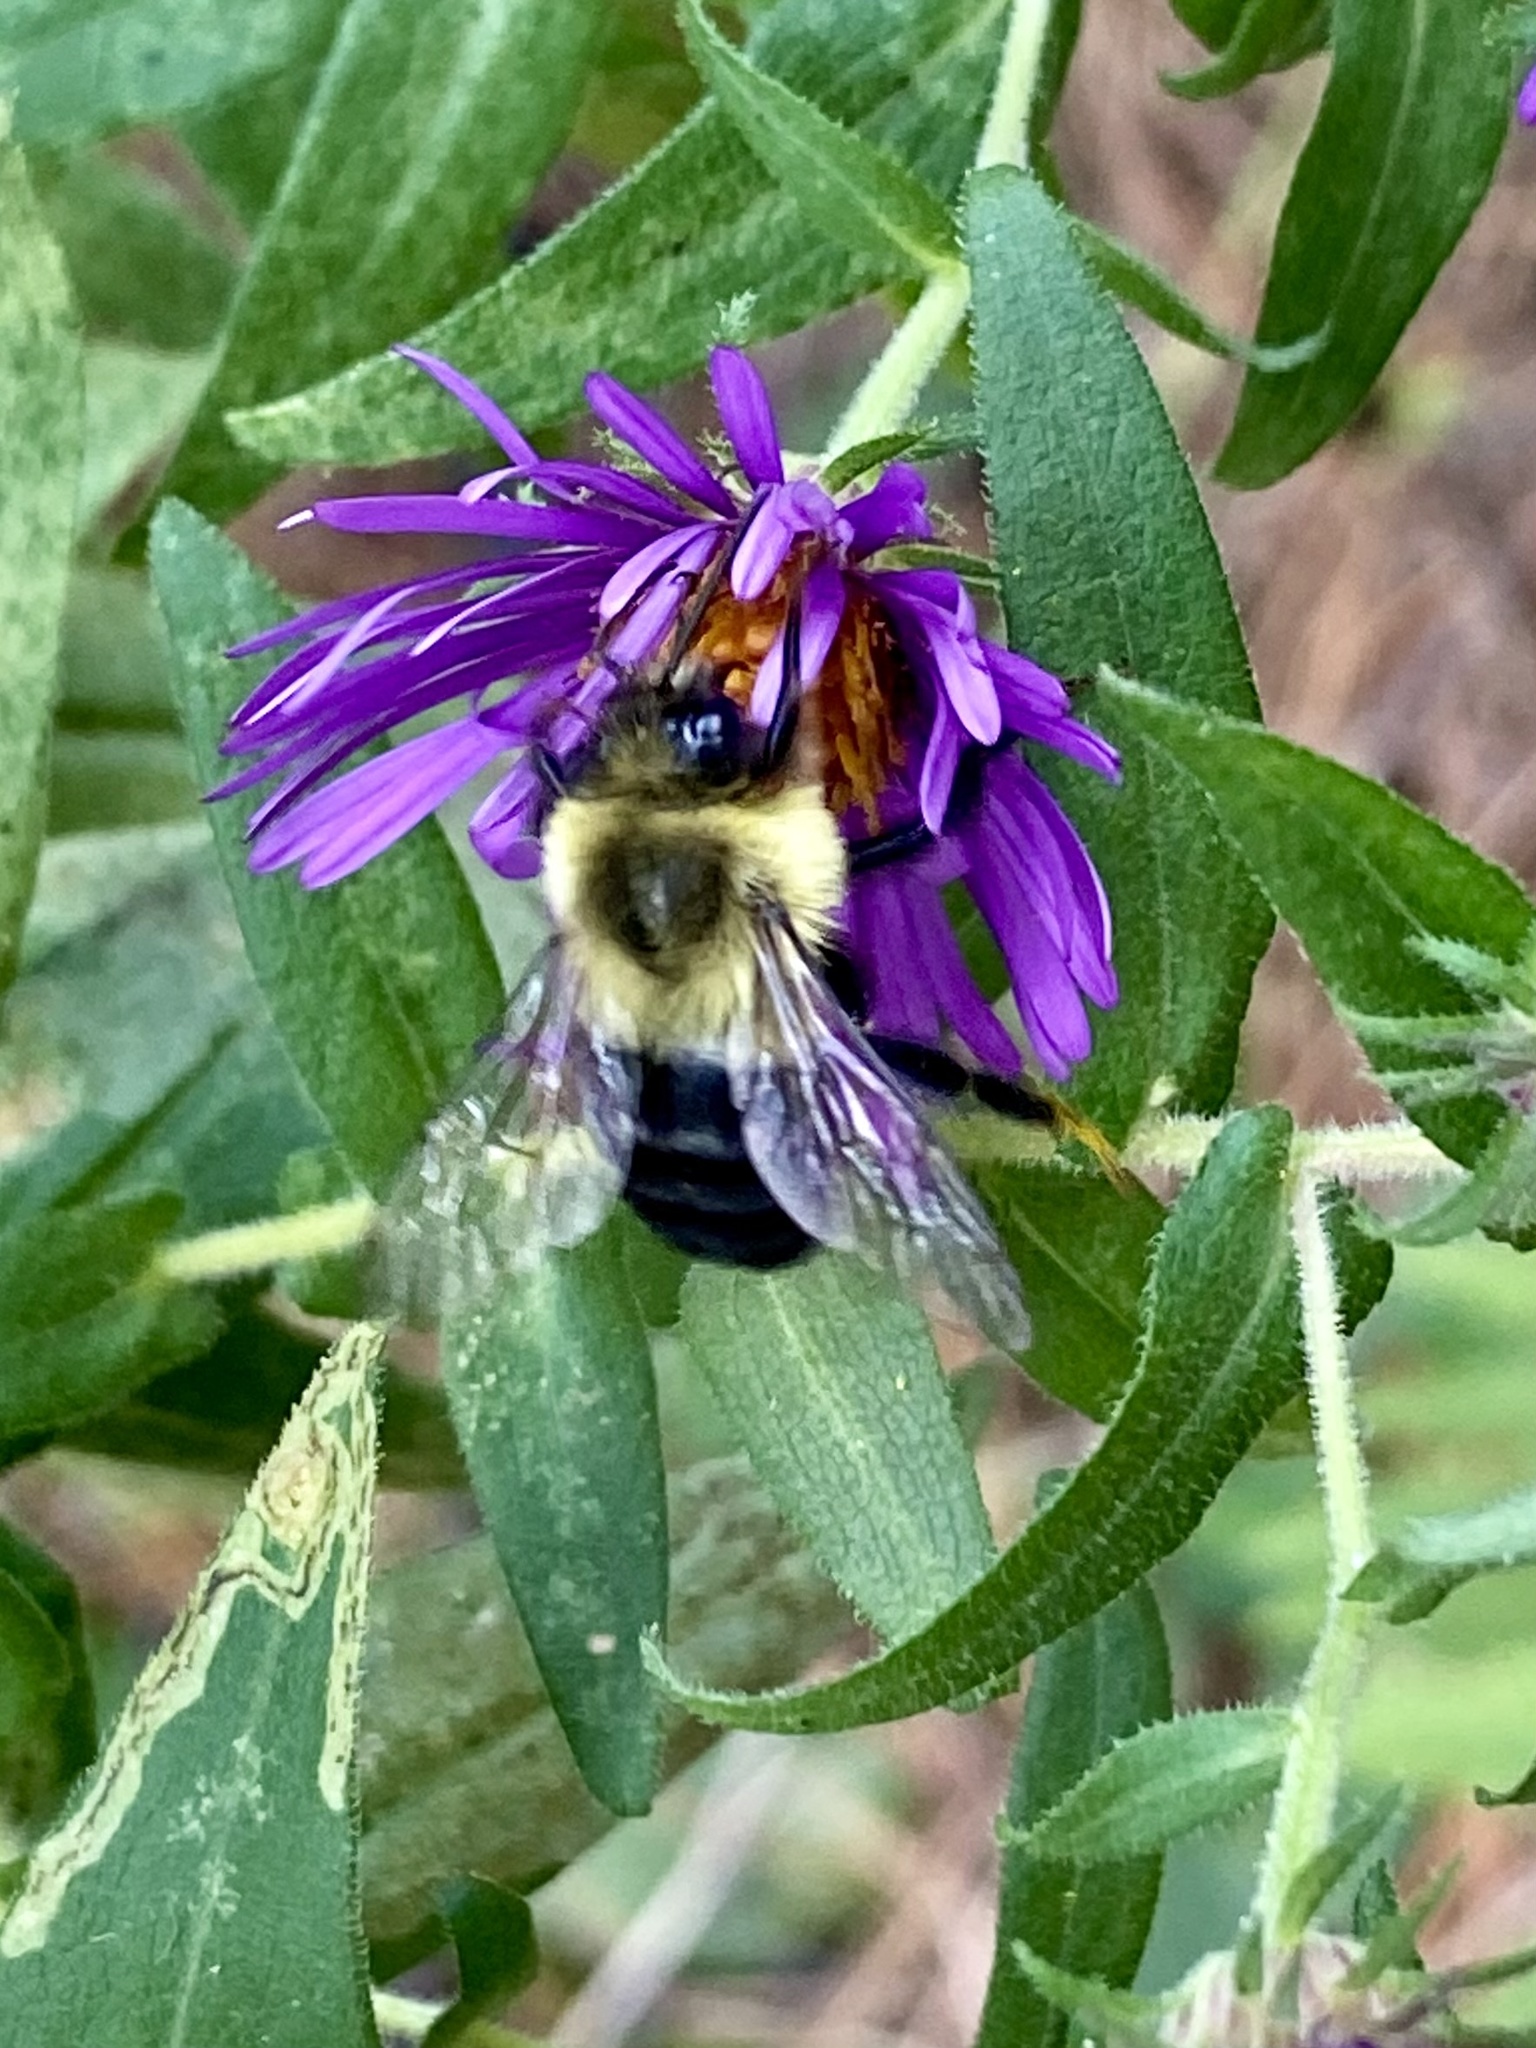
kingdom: Animalia
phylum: Arthropoda
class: Insecta
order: Hymenoptera
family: Apidae
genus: Bombus
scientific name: Bombus impatiens
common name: Common eastern bumble bee
